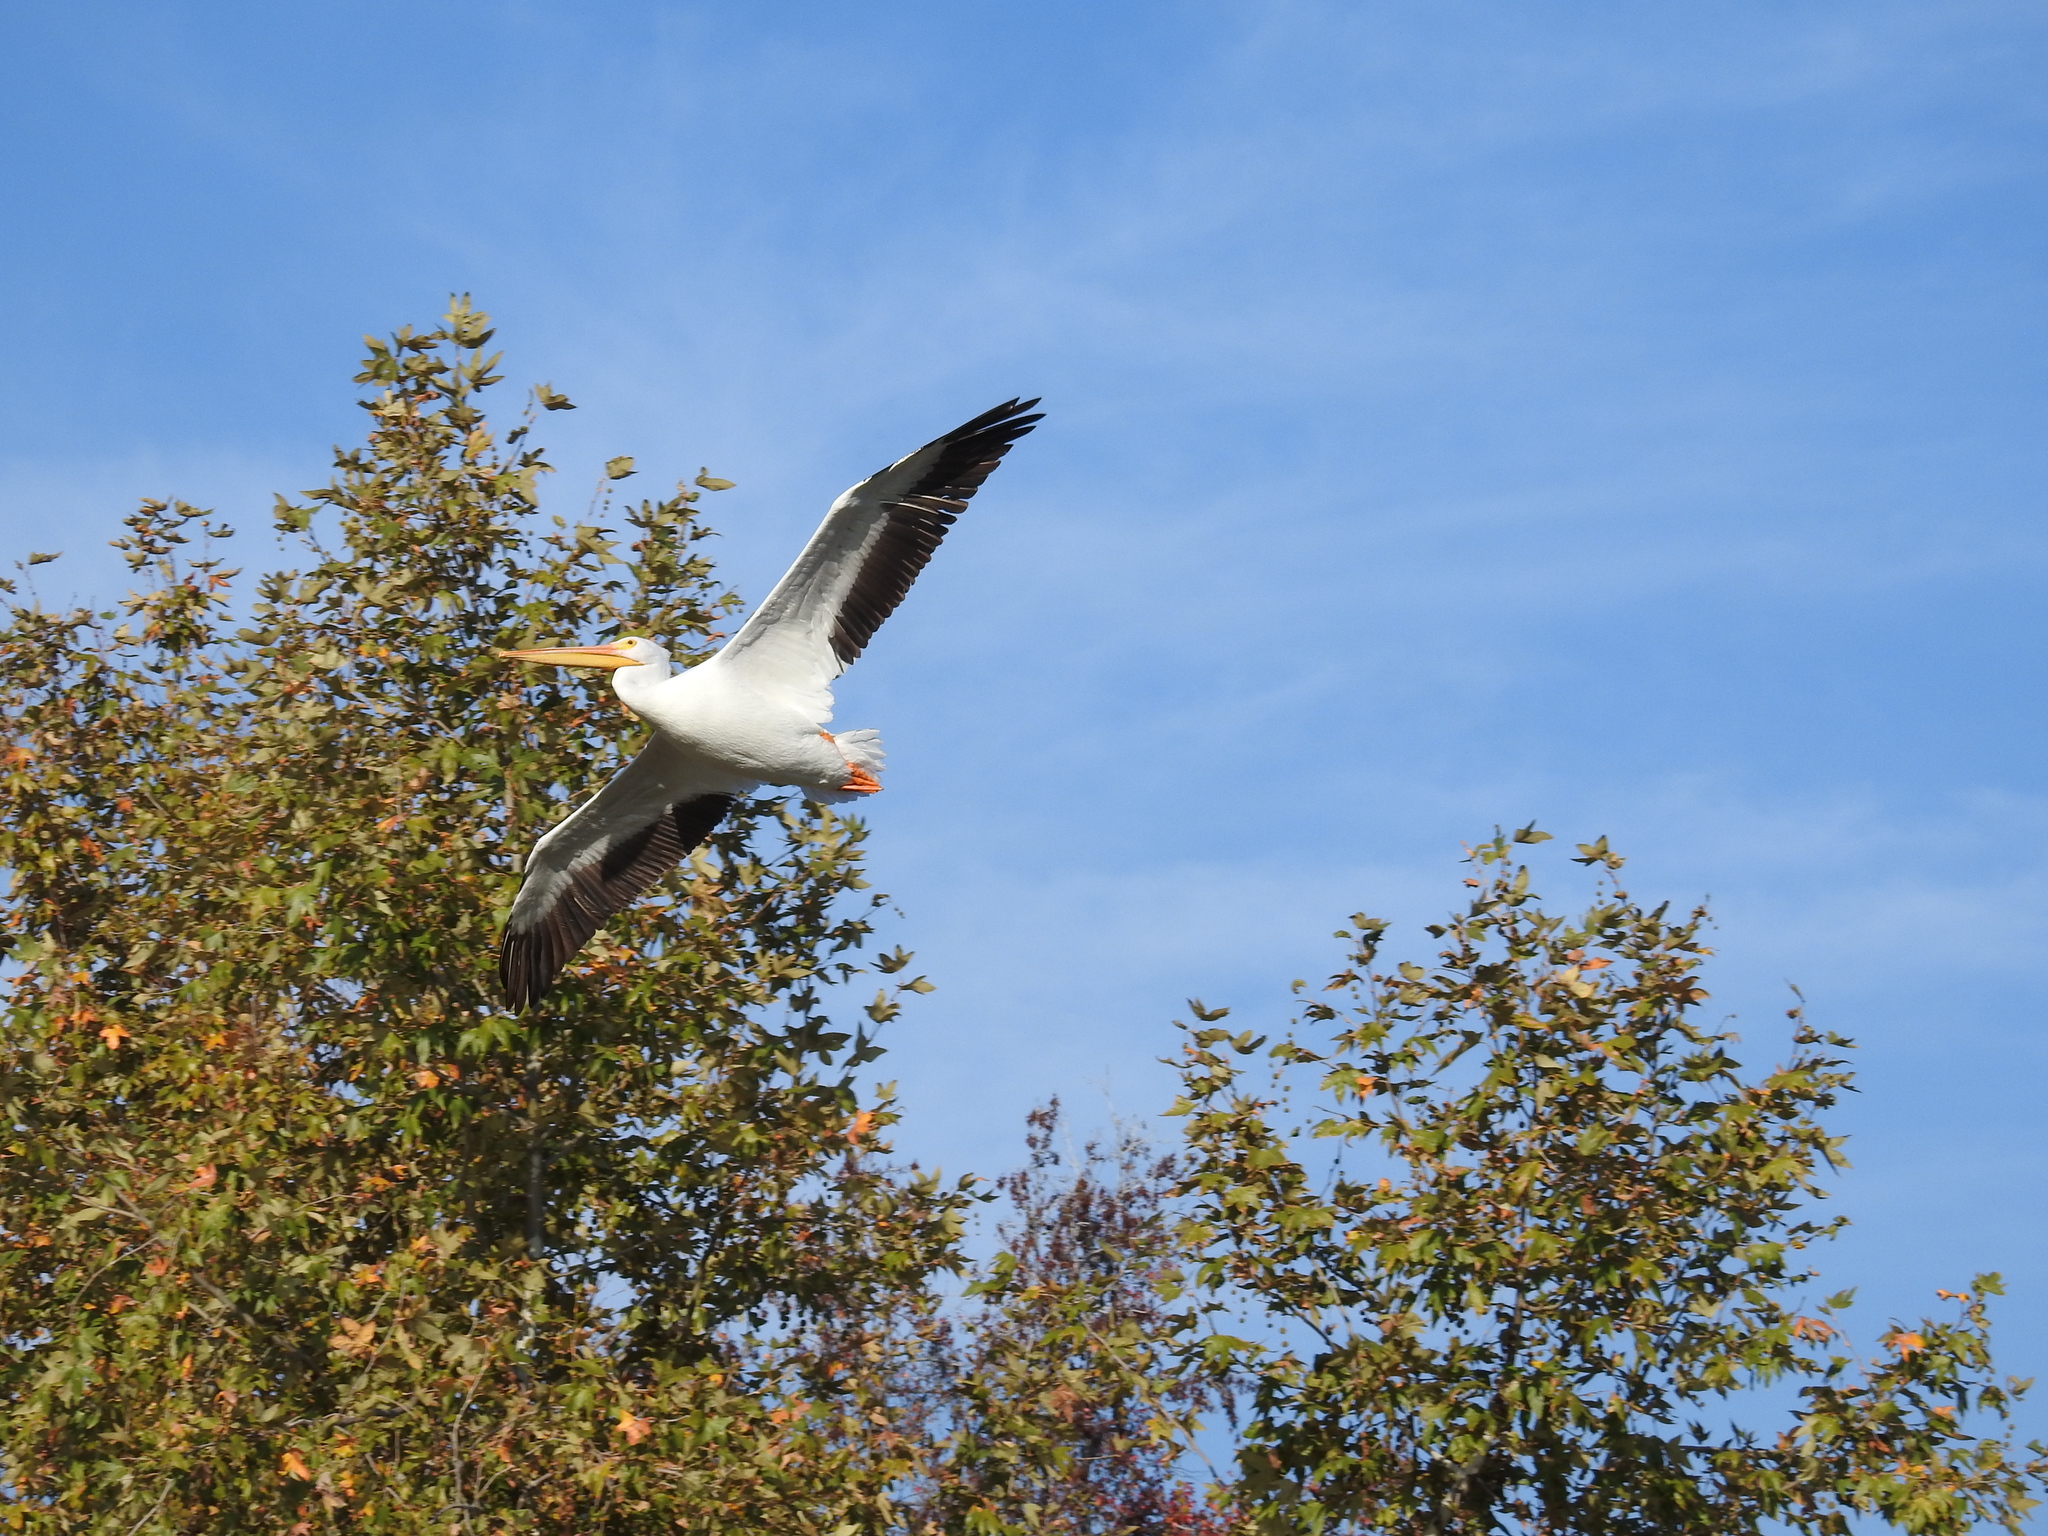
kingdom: Animalia
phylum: Chordata
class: Aves
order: Pelecaniformes
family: Pelecanidae
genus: Pelecanus
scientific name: Pelecanus erythrorhynchos
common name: American white pelican
